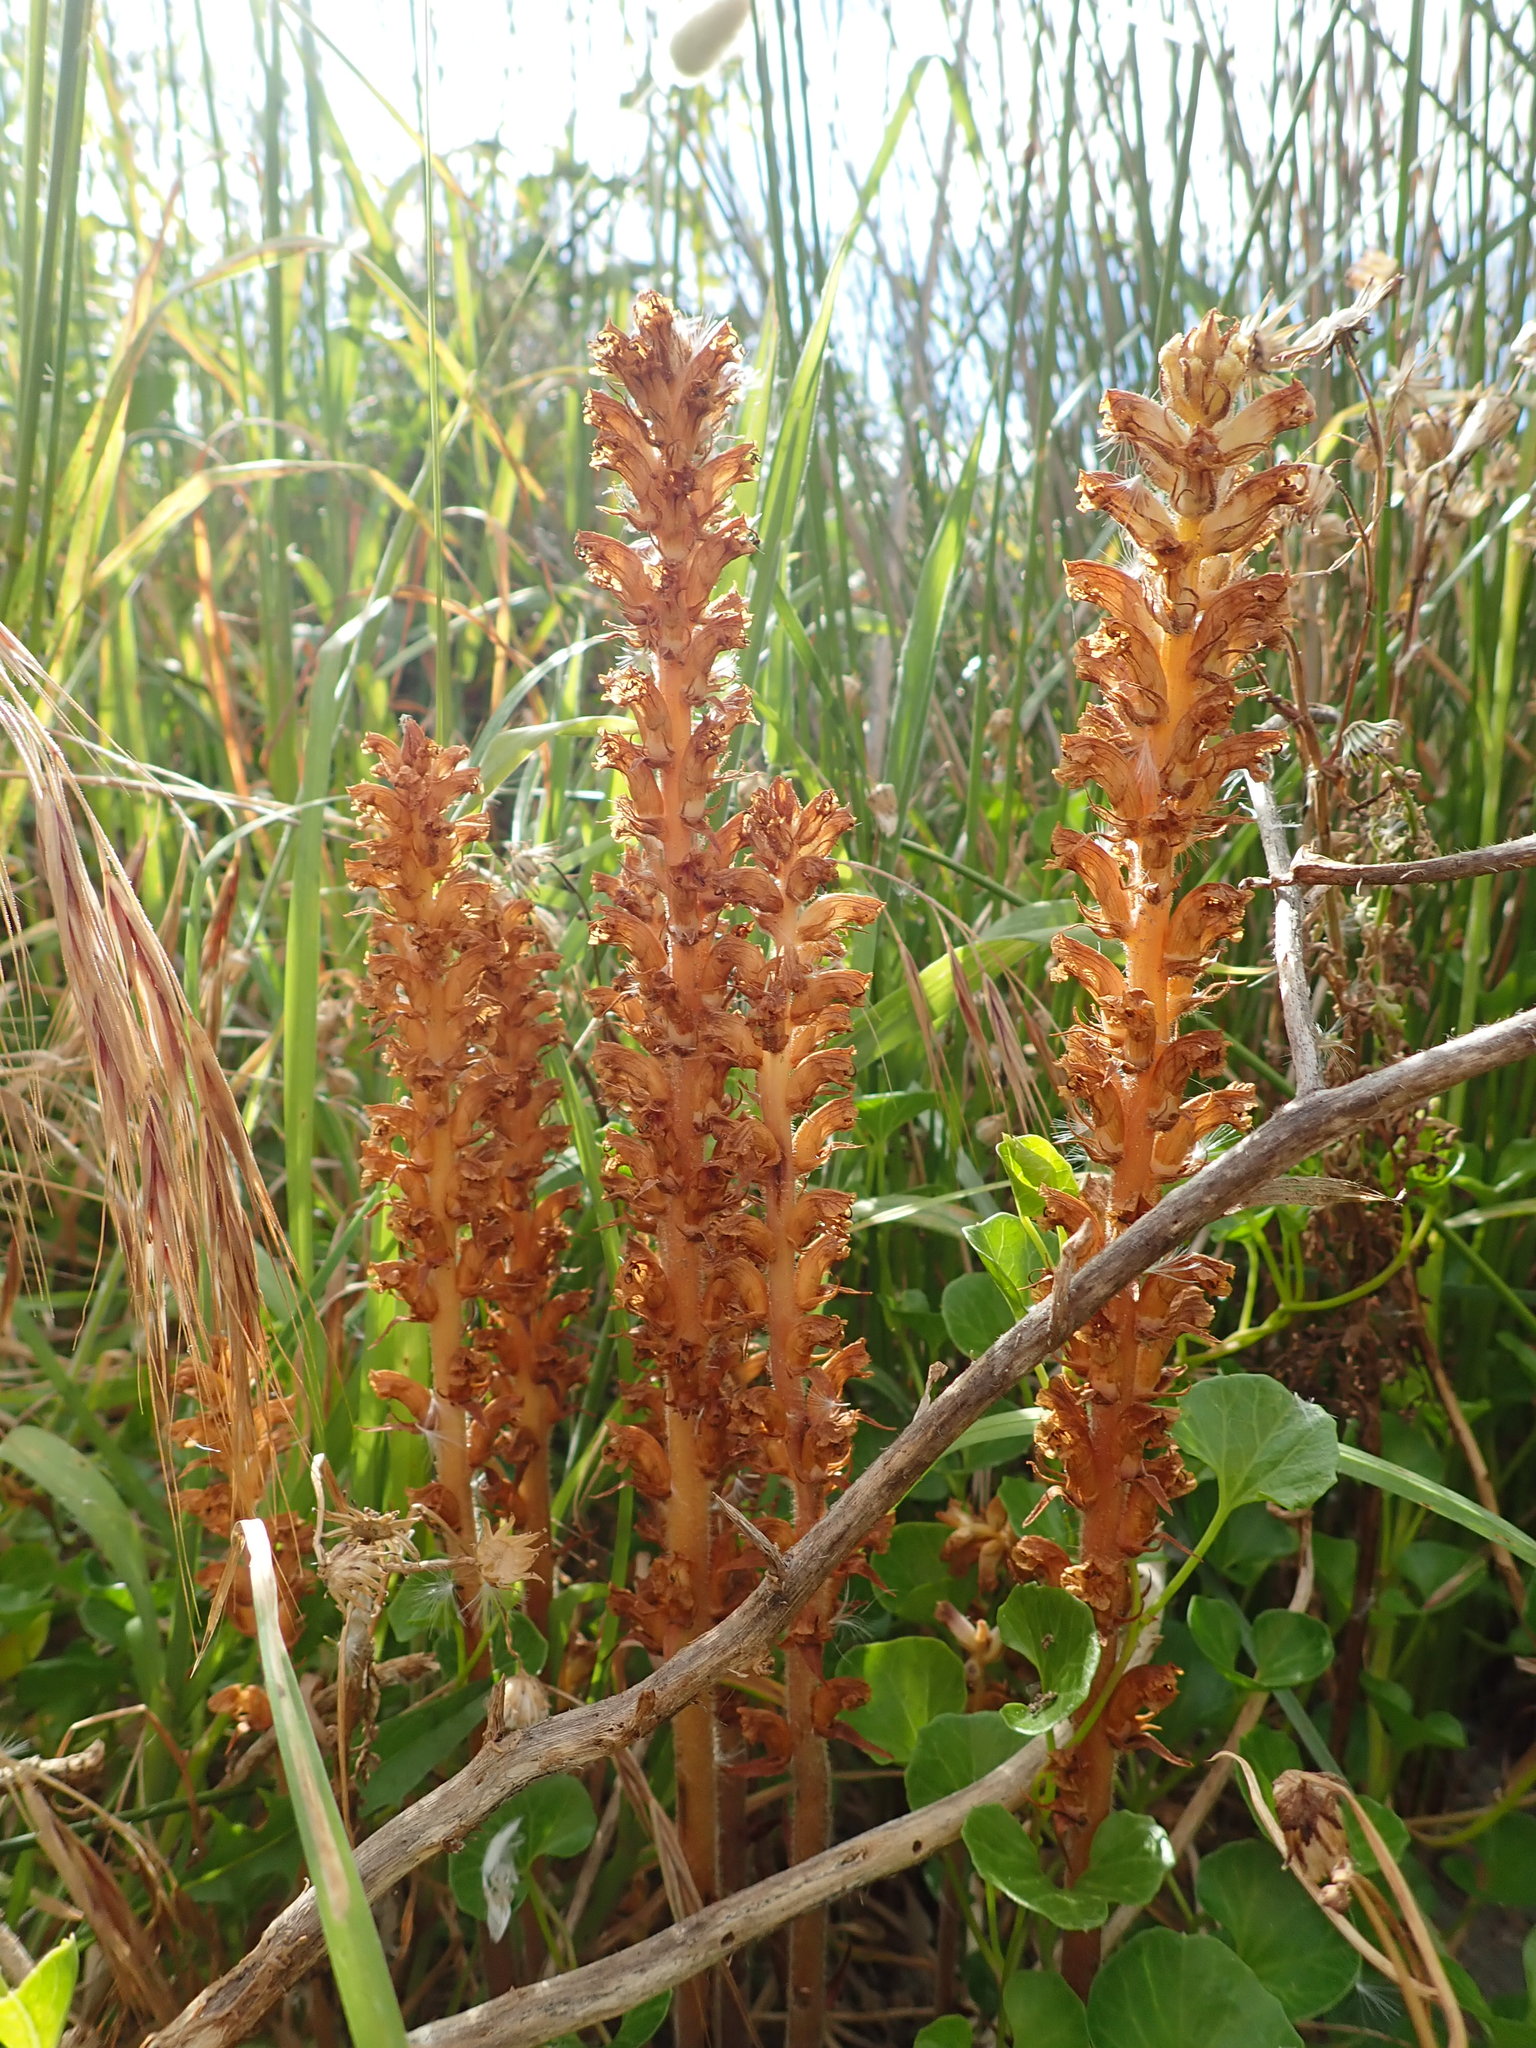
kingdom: Plantae
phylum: Tracheophyta
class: Magnoliopsida
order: Lamiales
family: Orobanchaceae
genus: Orobanche
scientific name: Orobanche minor
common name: Common broomrape
